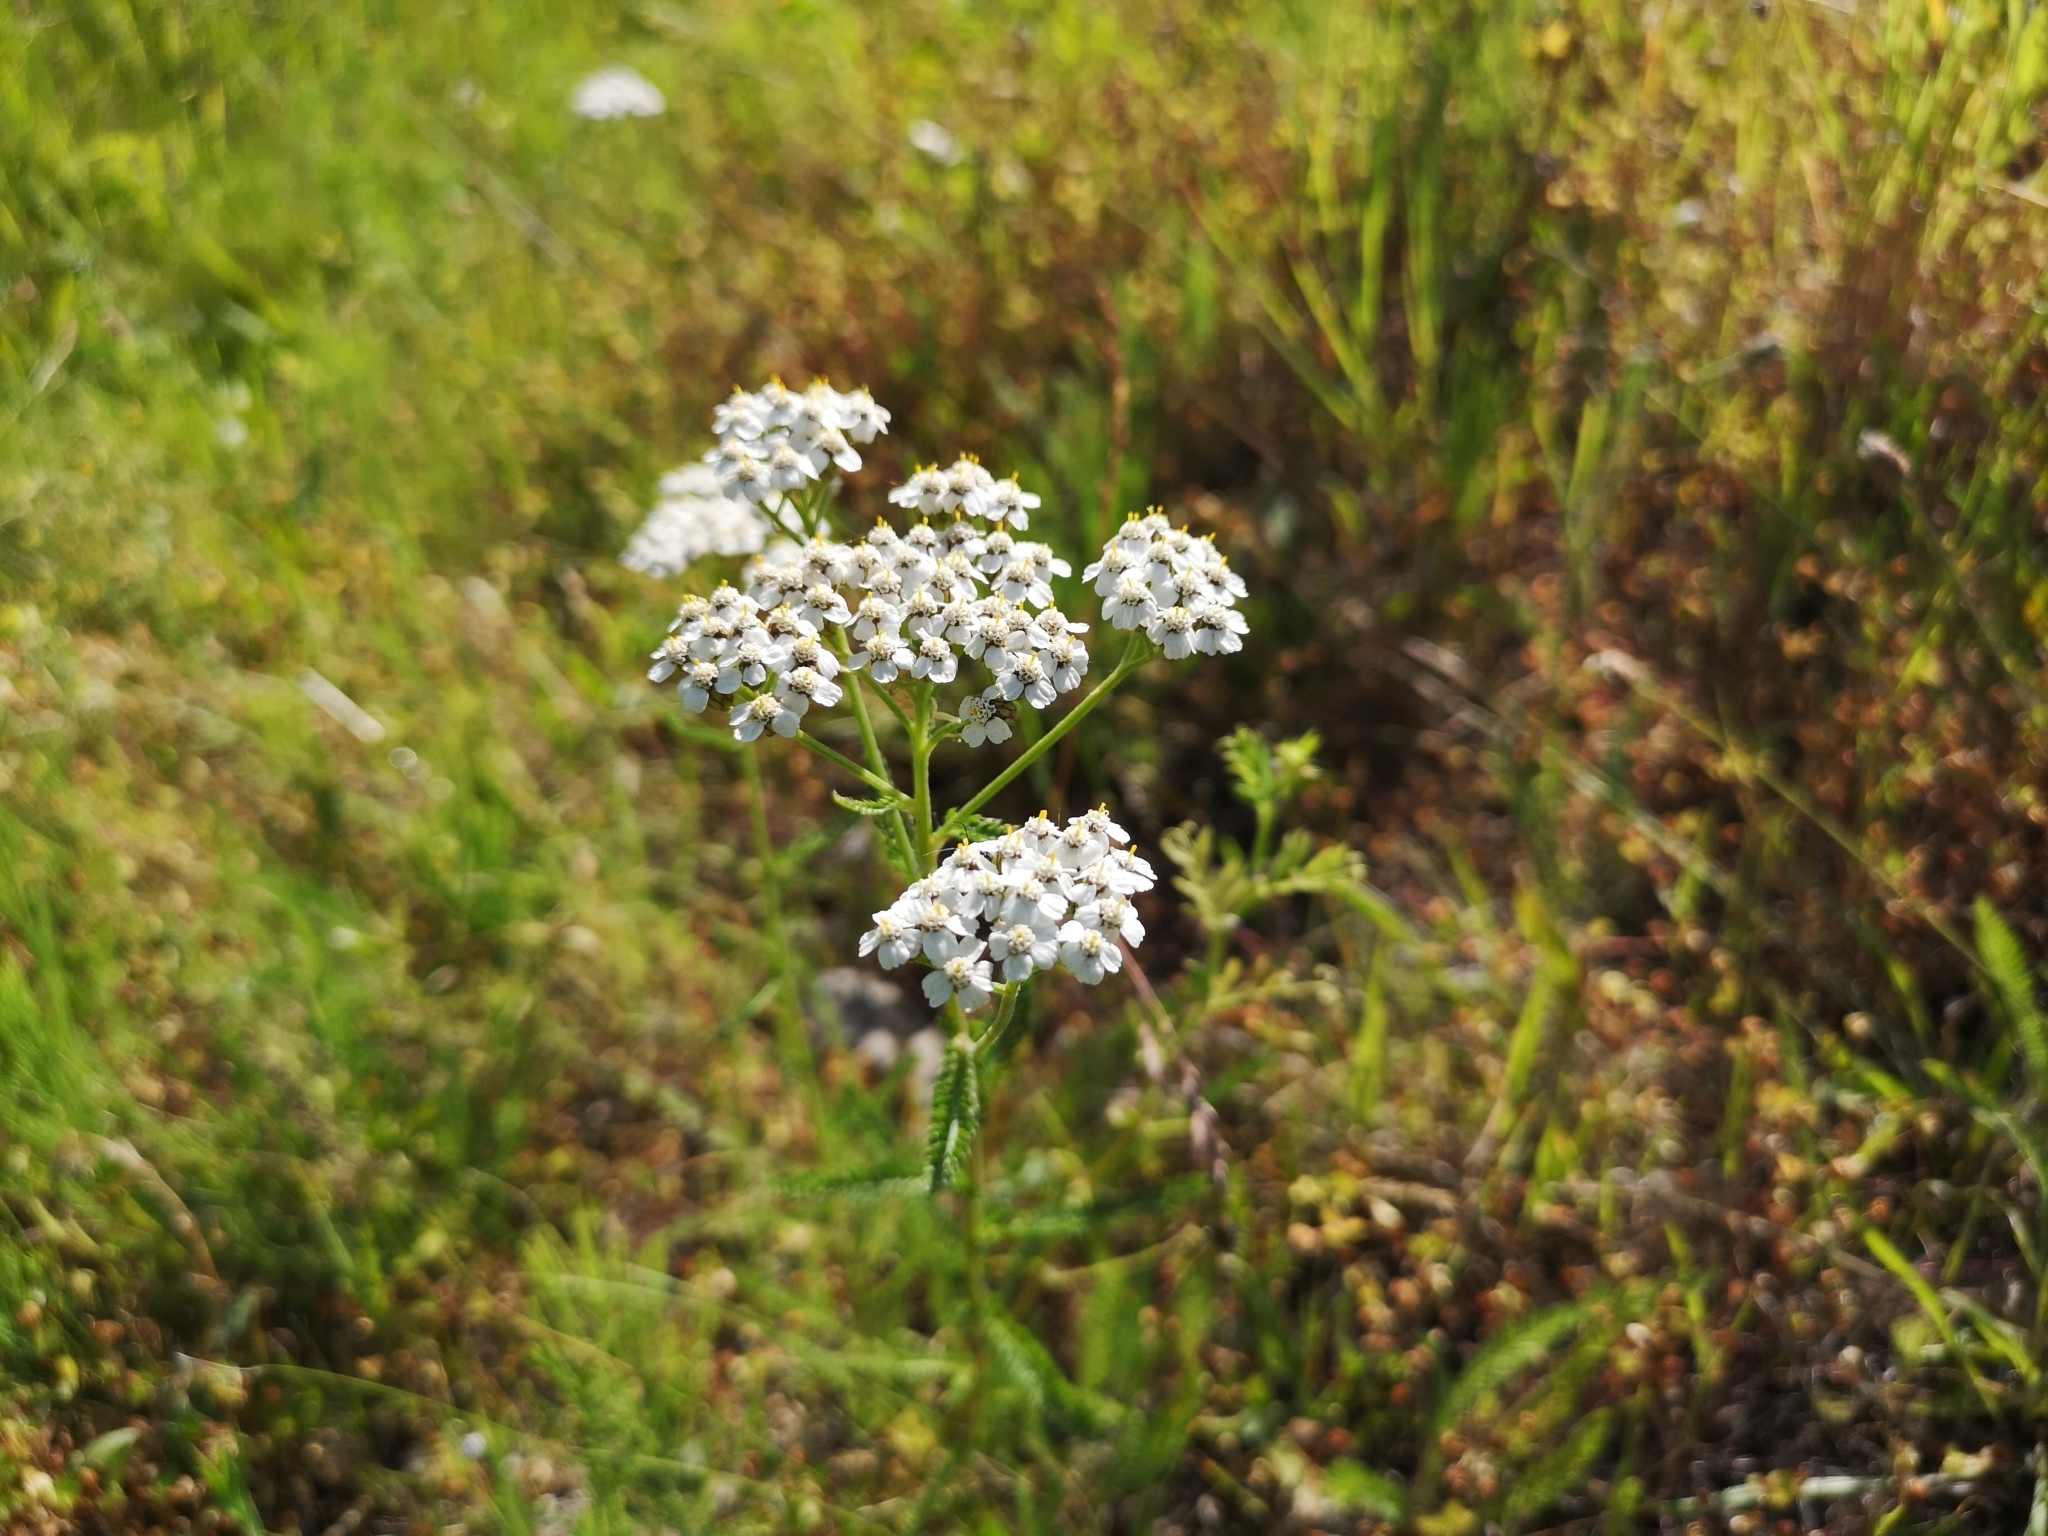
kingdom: Plantae
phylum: Tracheophyta
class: Magnoliopsida
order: Asterales
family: Asteraceae
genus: Achillea
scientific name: Achillea millefolium
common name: Yarrow
